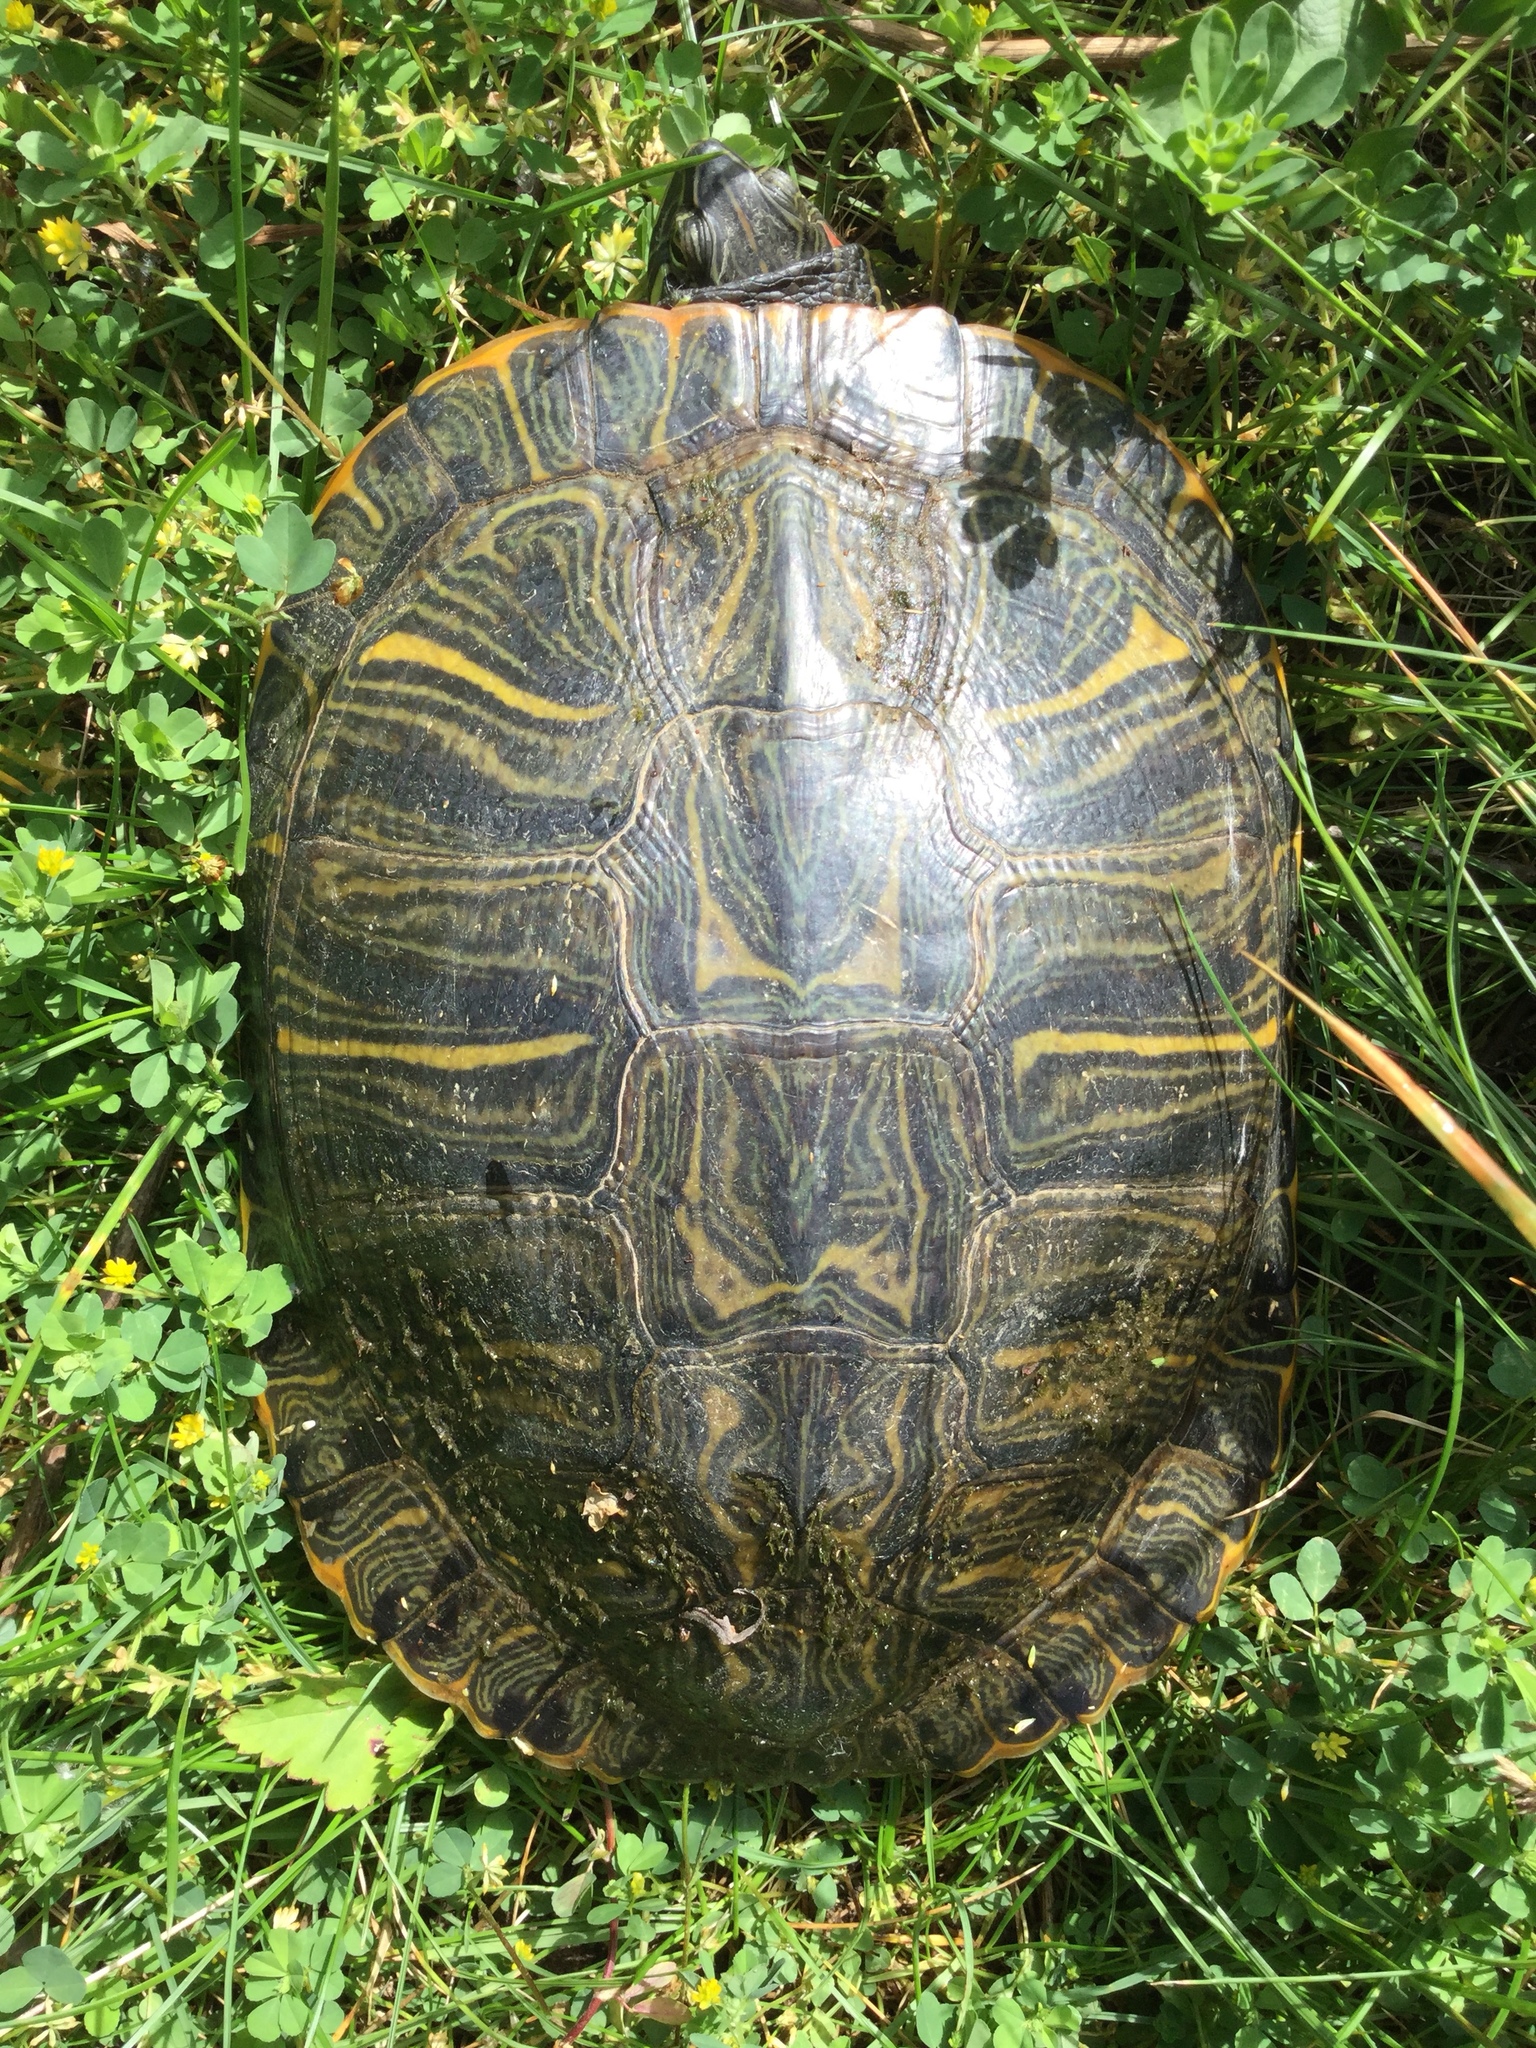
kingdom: Animalia
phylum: Chordata
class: Testudines
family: Emydidae
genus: Trachemys
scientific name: Trachemys scripta
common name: Slider
